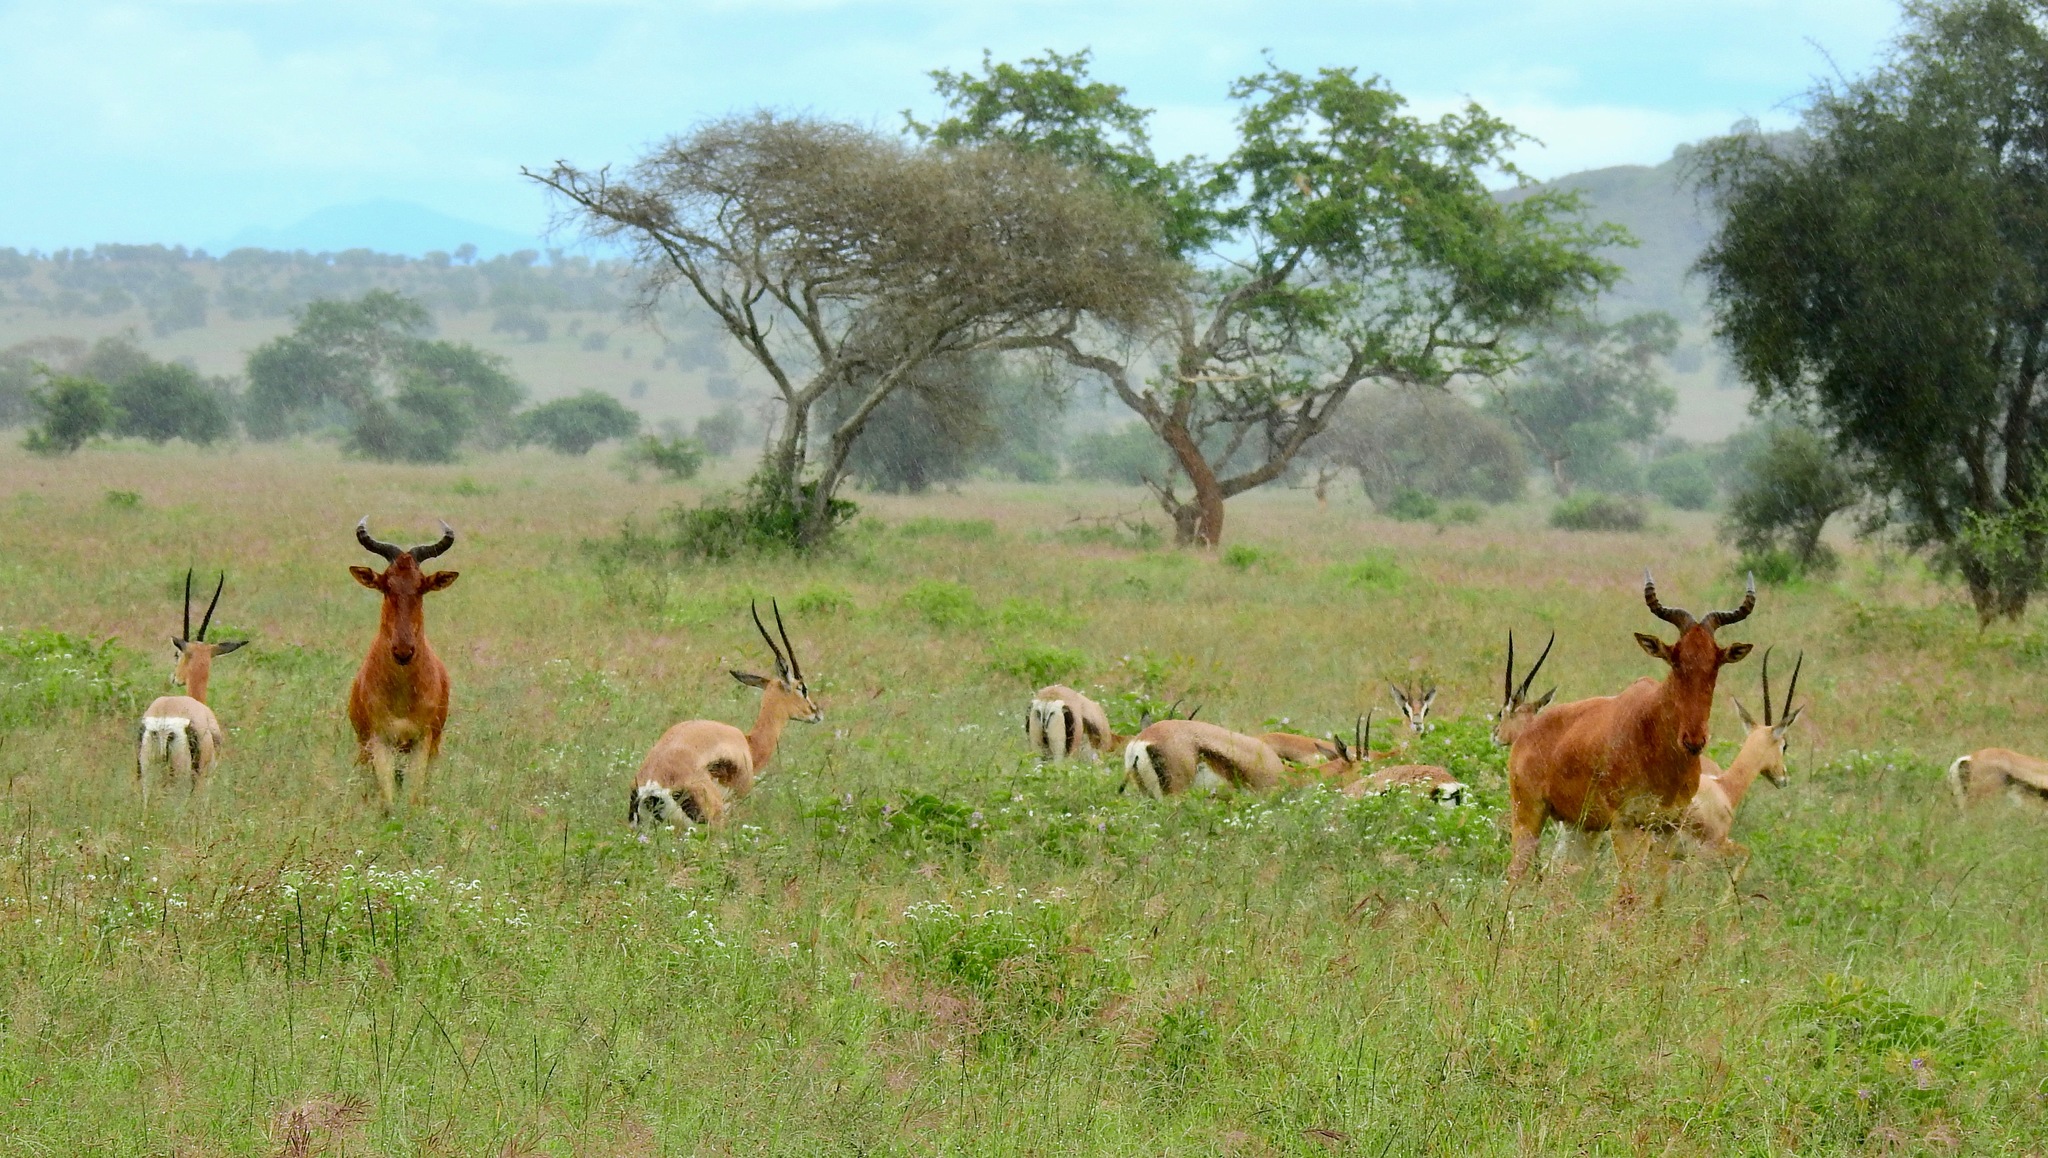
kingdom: Animalia
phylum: Chordata
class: Mammalia
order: Artiodactyla
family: Bovidae
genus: Alcelaphus
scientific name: Alcelaphus buselaphus
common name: Hartebeest
